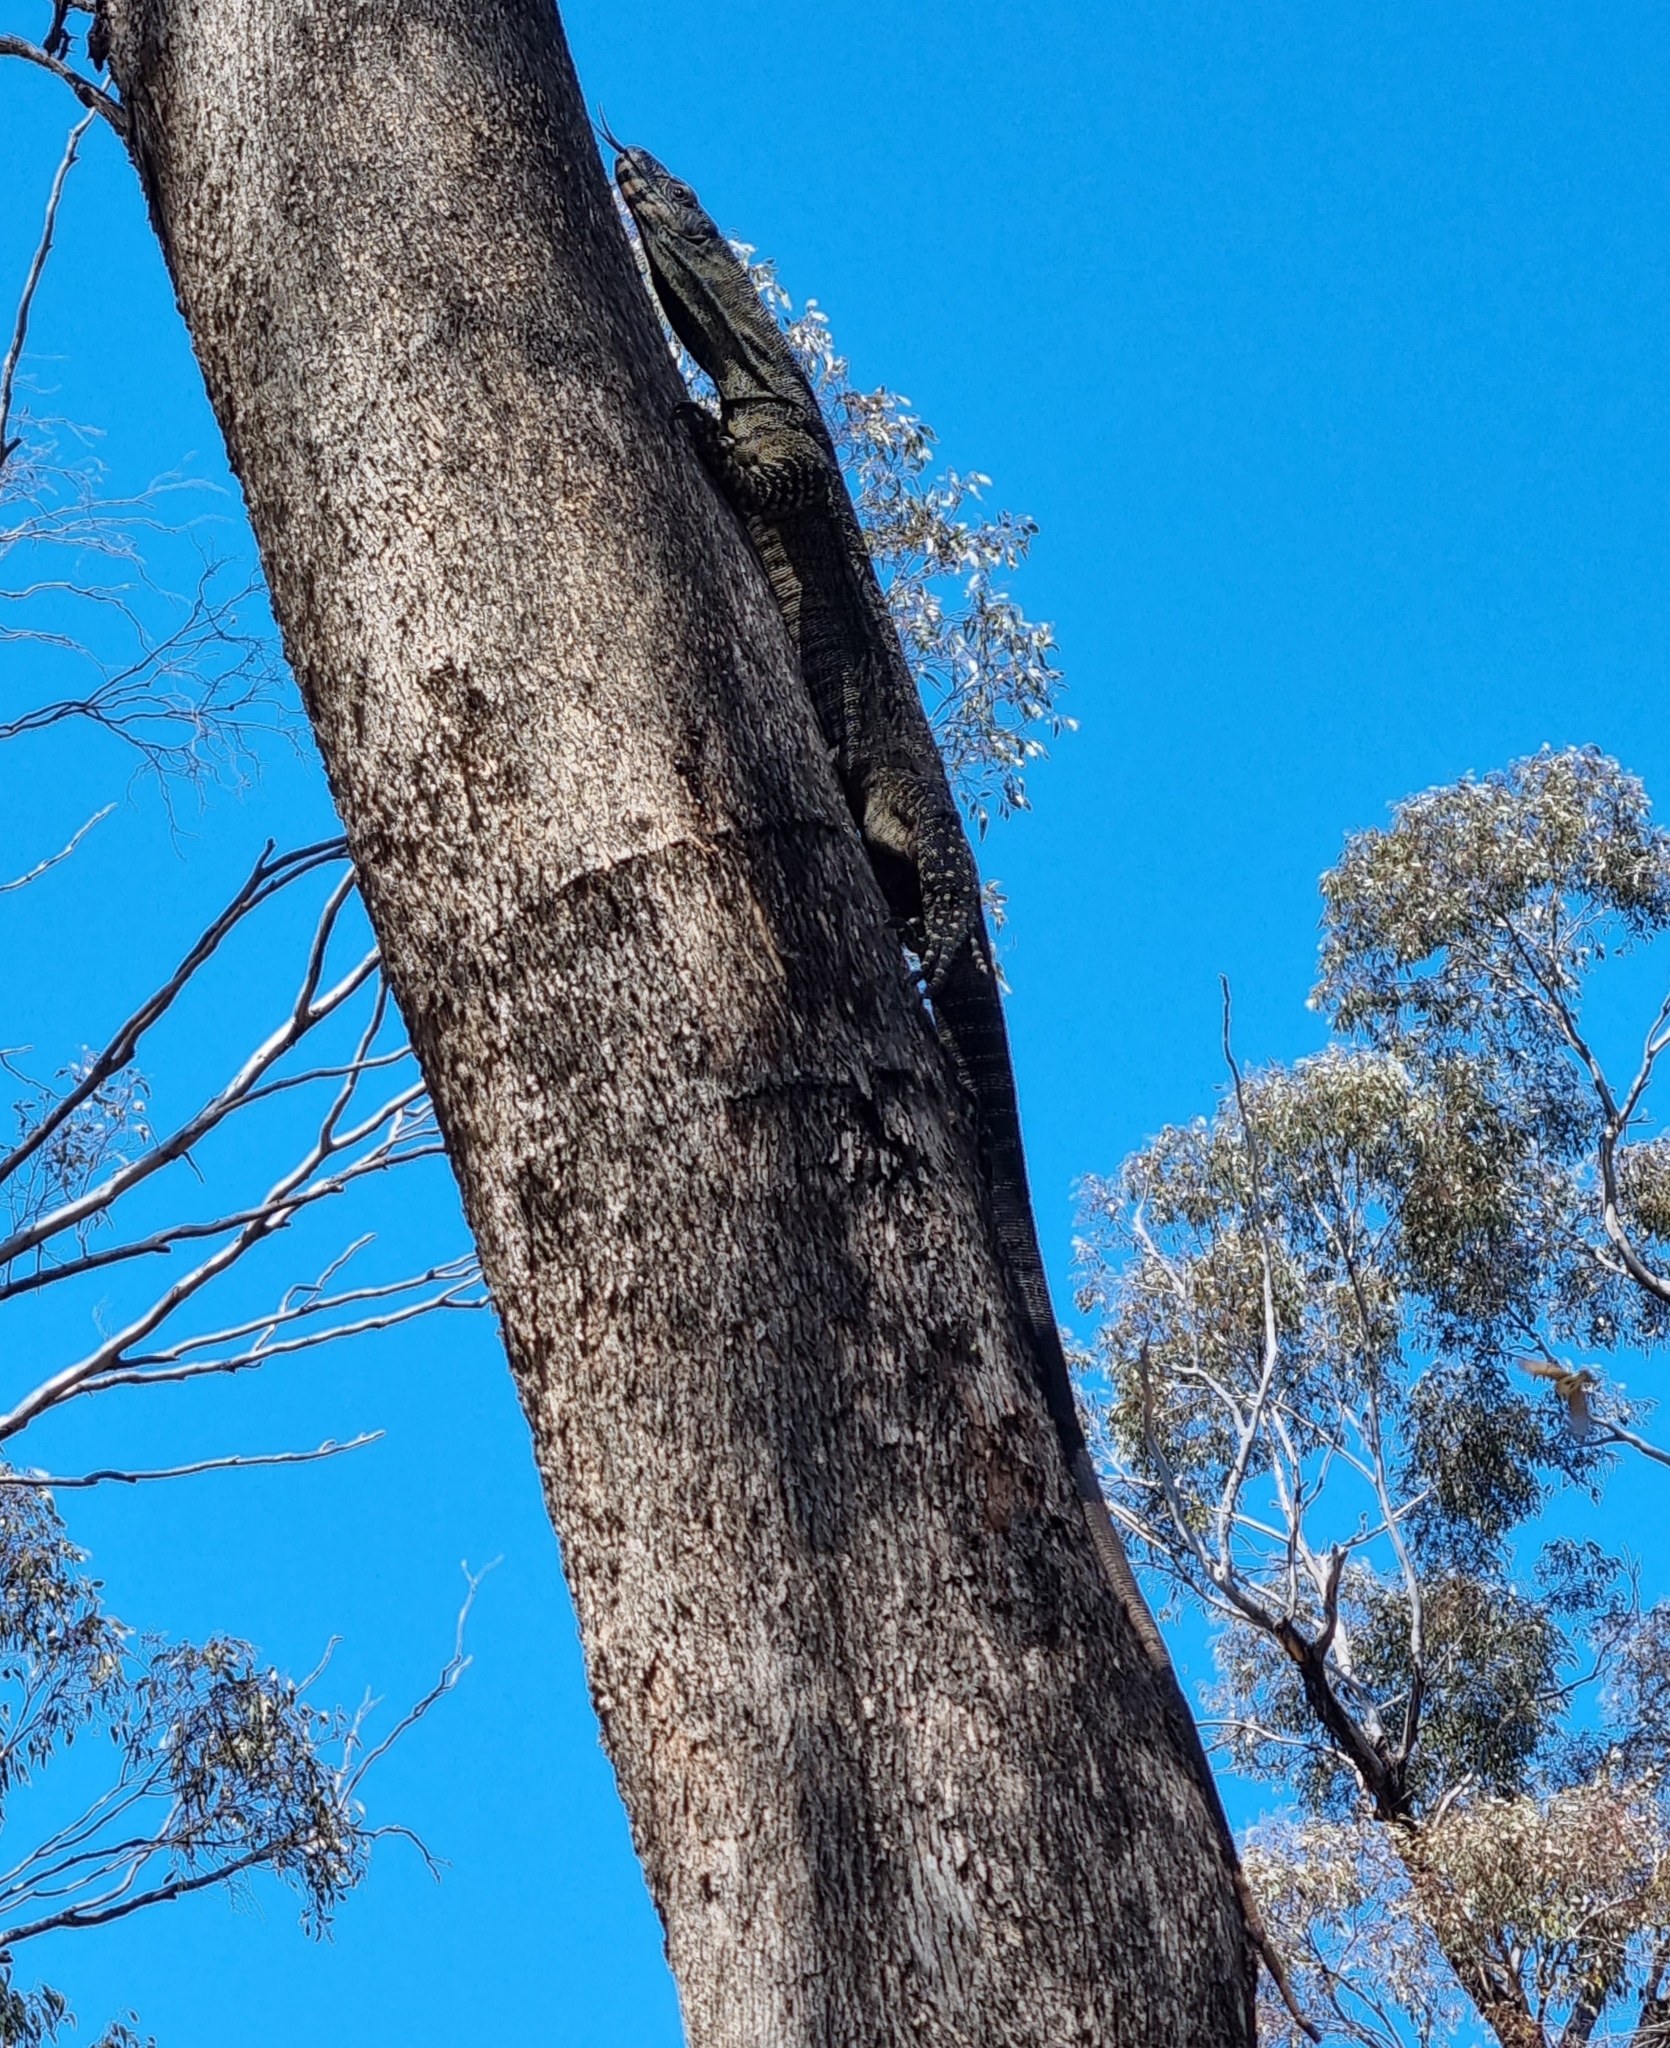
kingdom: Animalia
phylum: Chordata
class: Squamata
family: Varanidae
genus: Varanus
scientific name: Varanus varius
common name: Lace monitor
